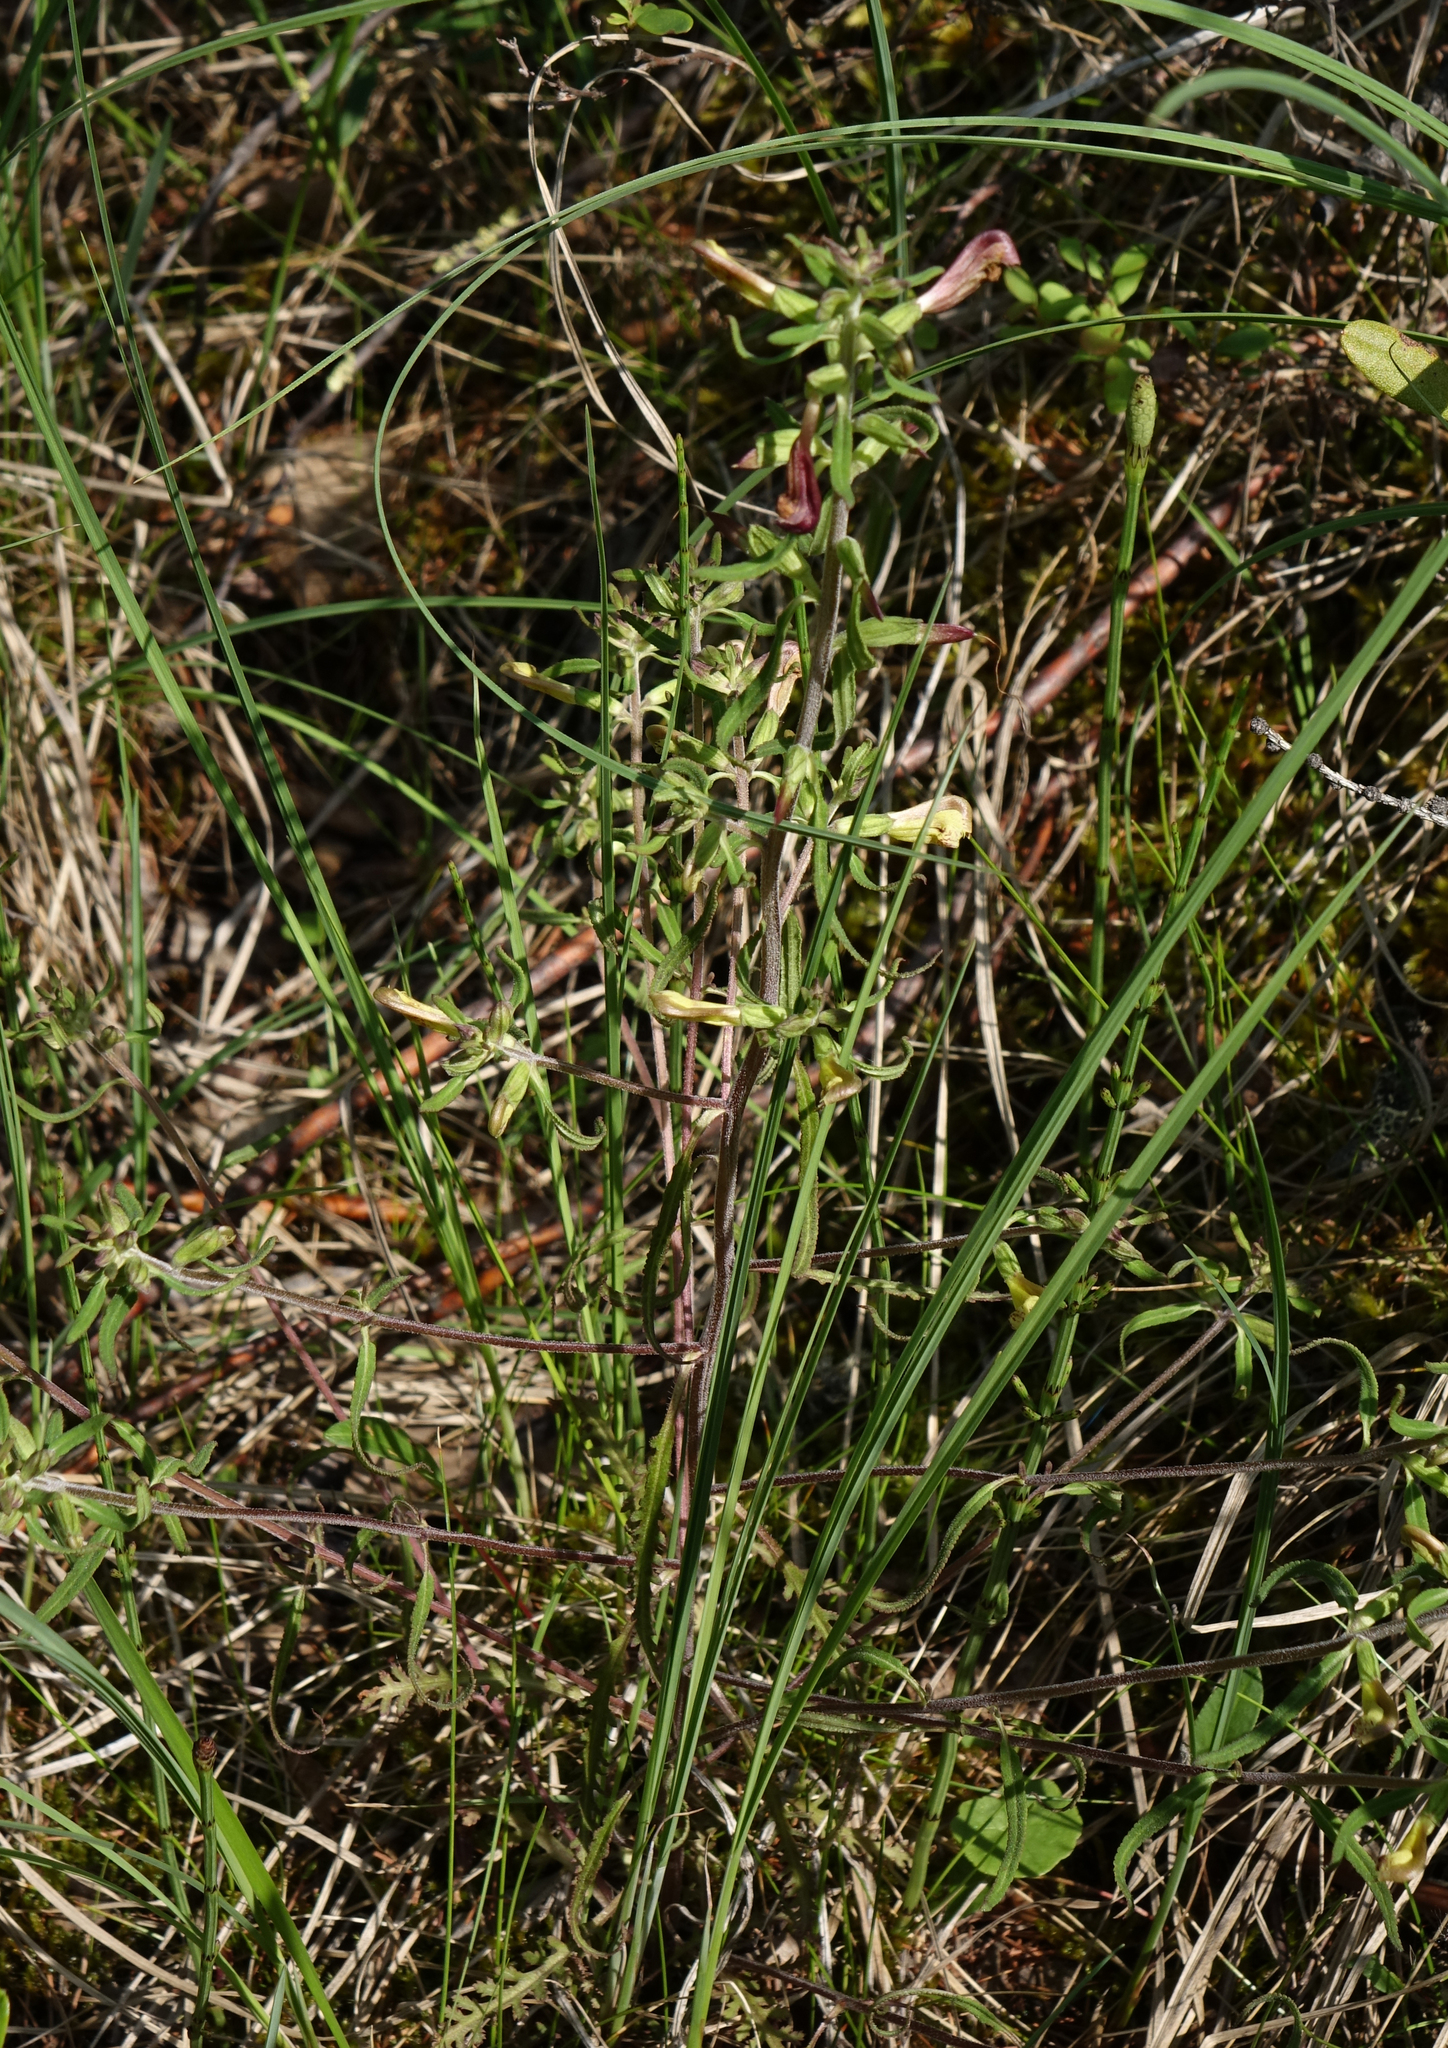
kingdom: Plantae
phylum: Tracheophyta
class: Magnoliopsida
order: Lamiales
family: Orobanchaceae
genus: Pedicularis
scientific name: Pedicularis labradorica
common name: Labrador lousewort
